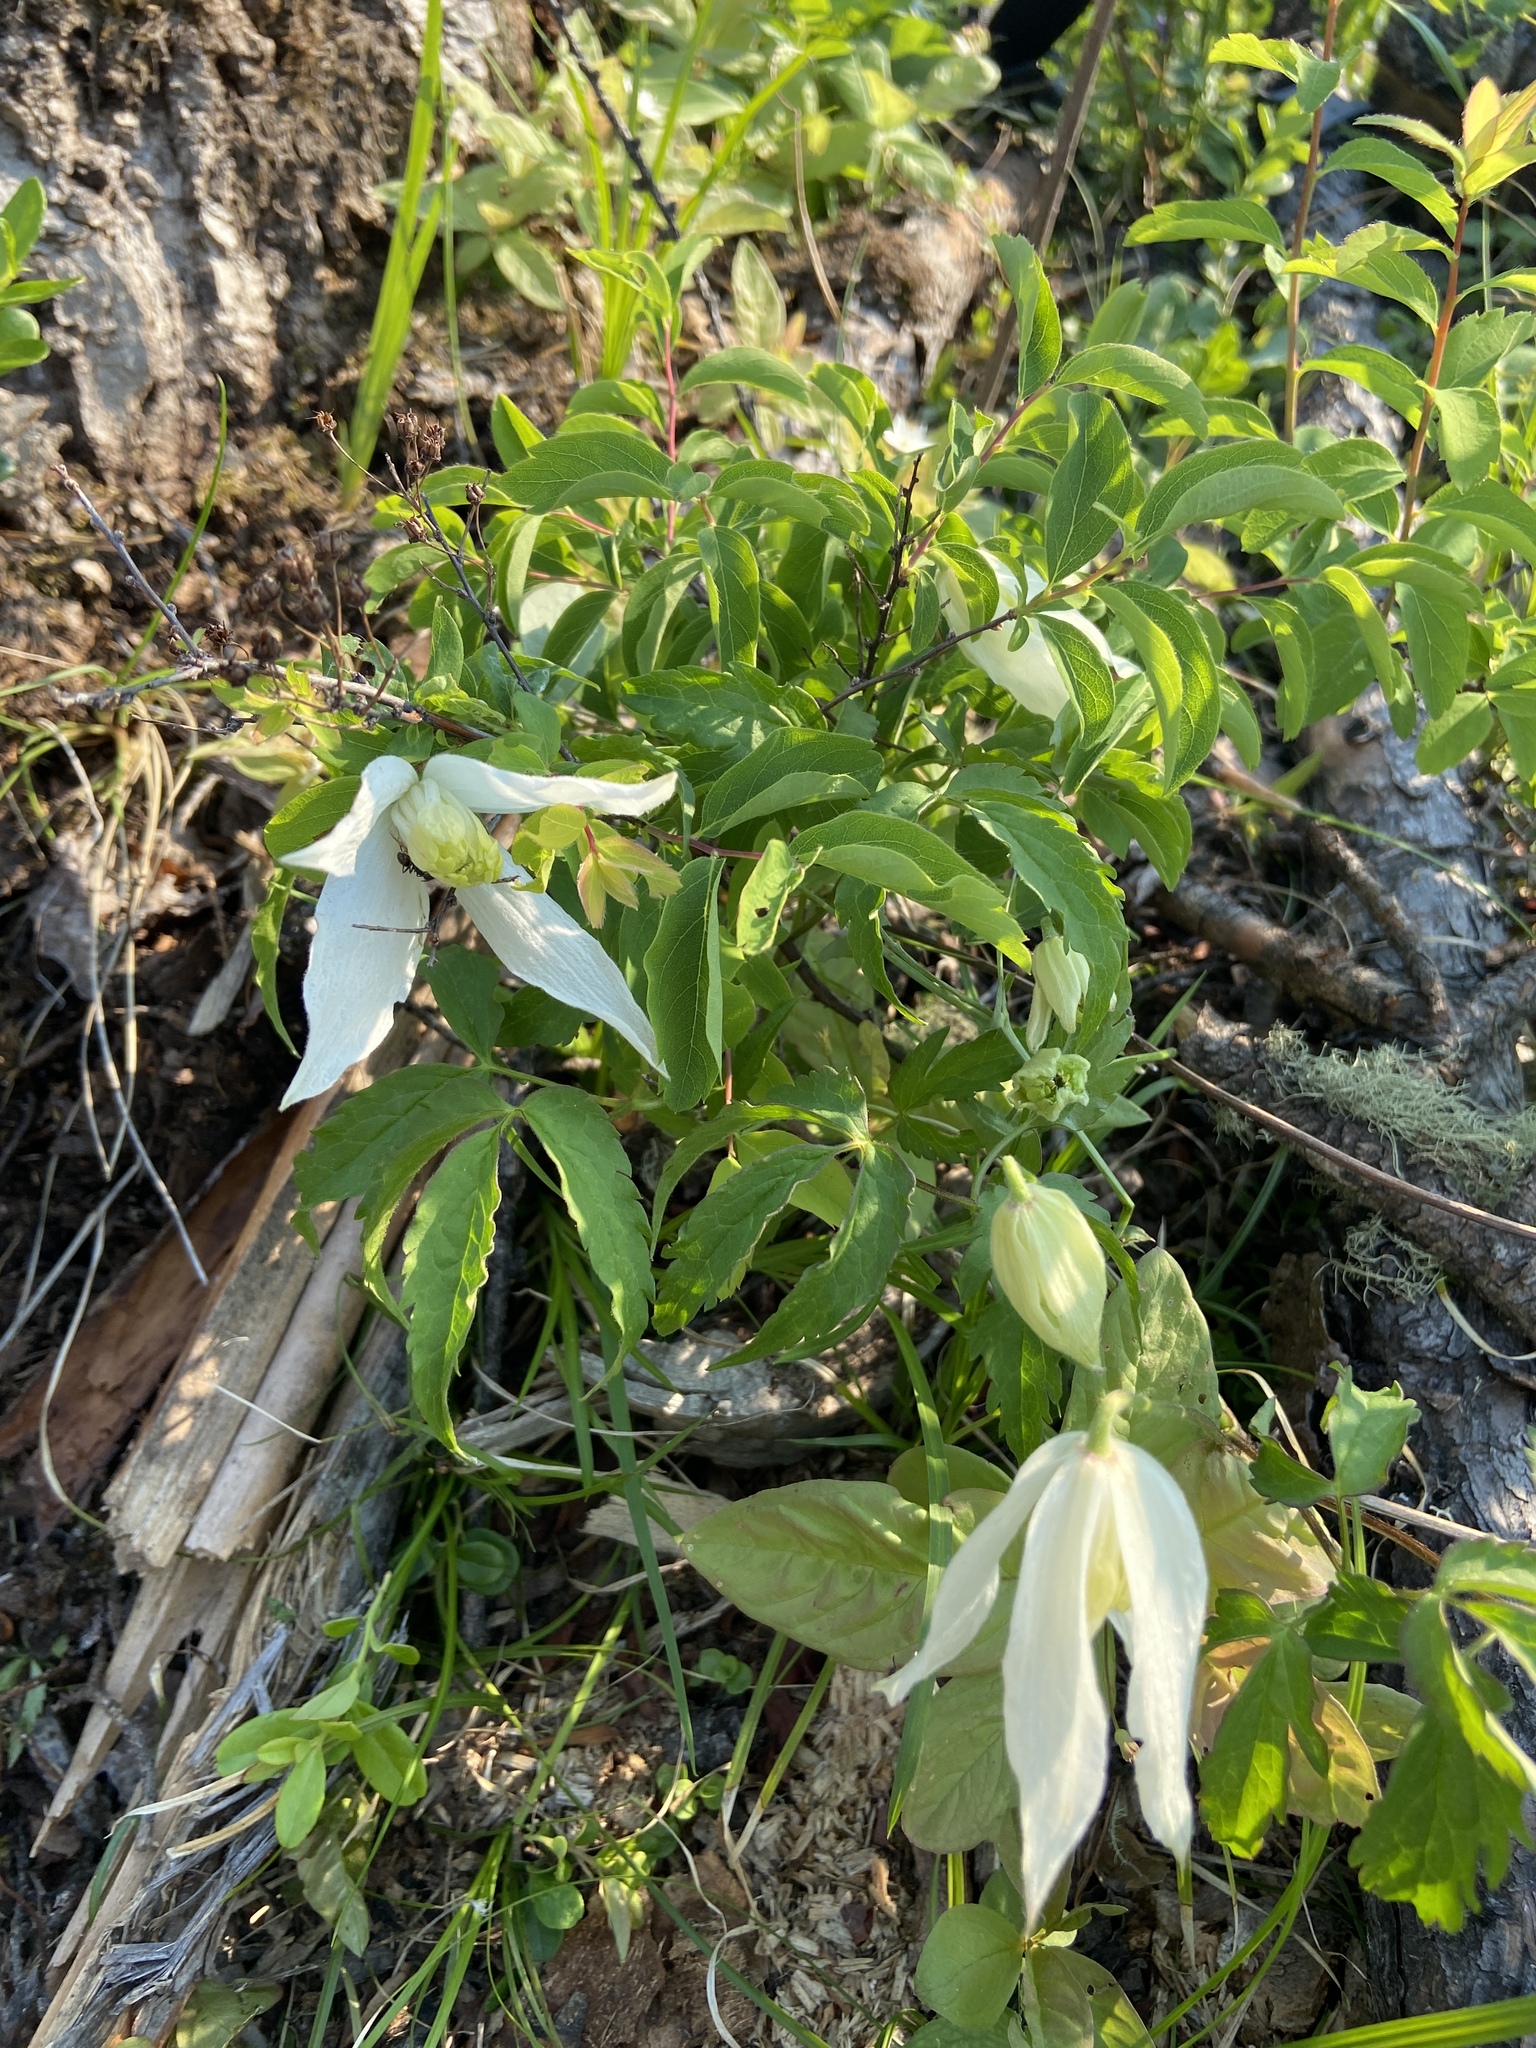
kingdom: Plantae
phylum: Tracheophyta
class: Magnoliopsida
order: Ranunculales
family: Ranunculaceae
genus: Clematis
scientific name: Clematis sibirica
